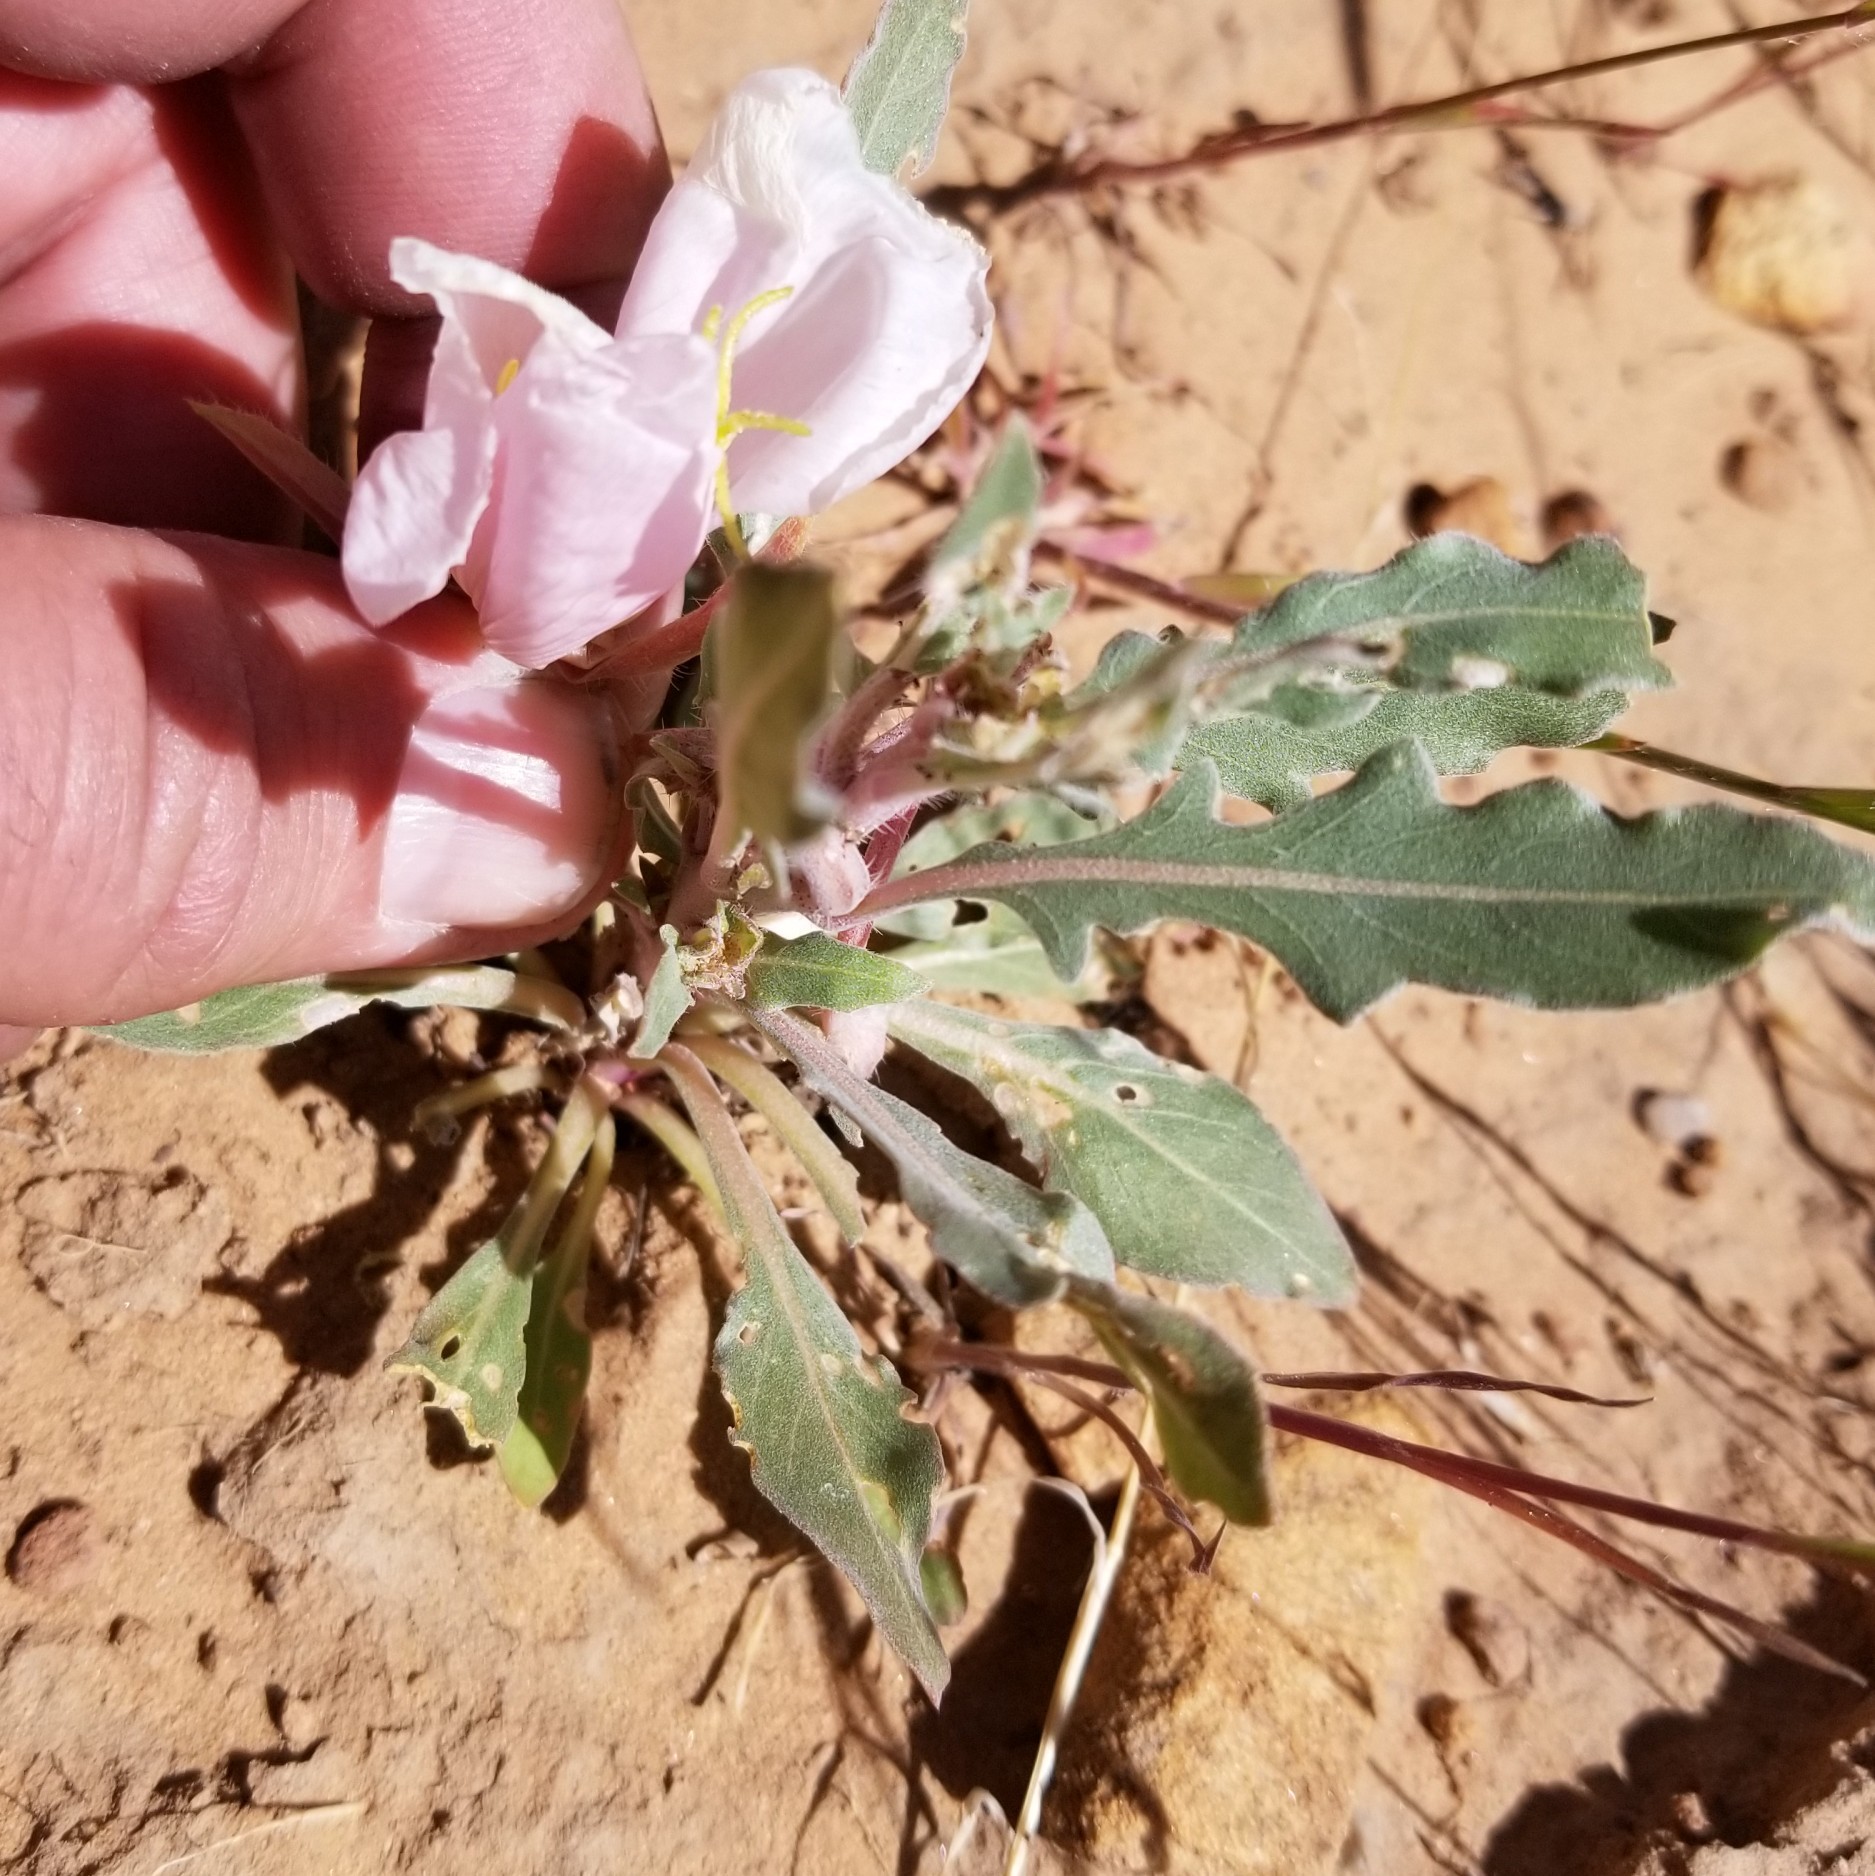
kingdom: Plantae
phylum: Tracheophyta
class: Magnoliopsida
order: Myrtales
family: Onagraceae
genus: Oenothera
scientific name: Oenothera deltoides
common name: Basket evening-primrose
